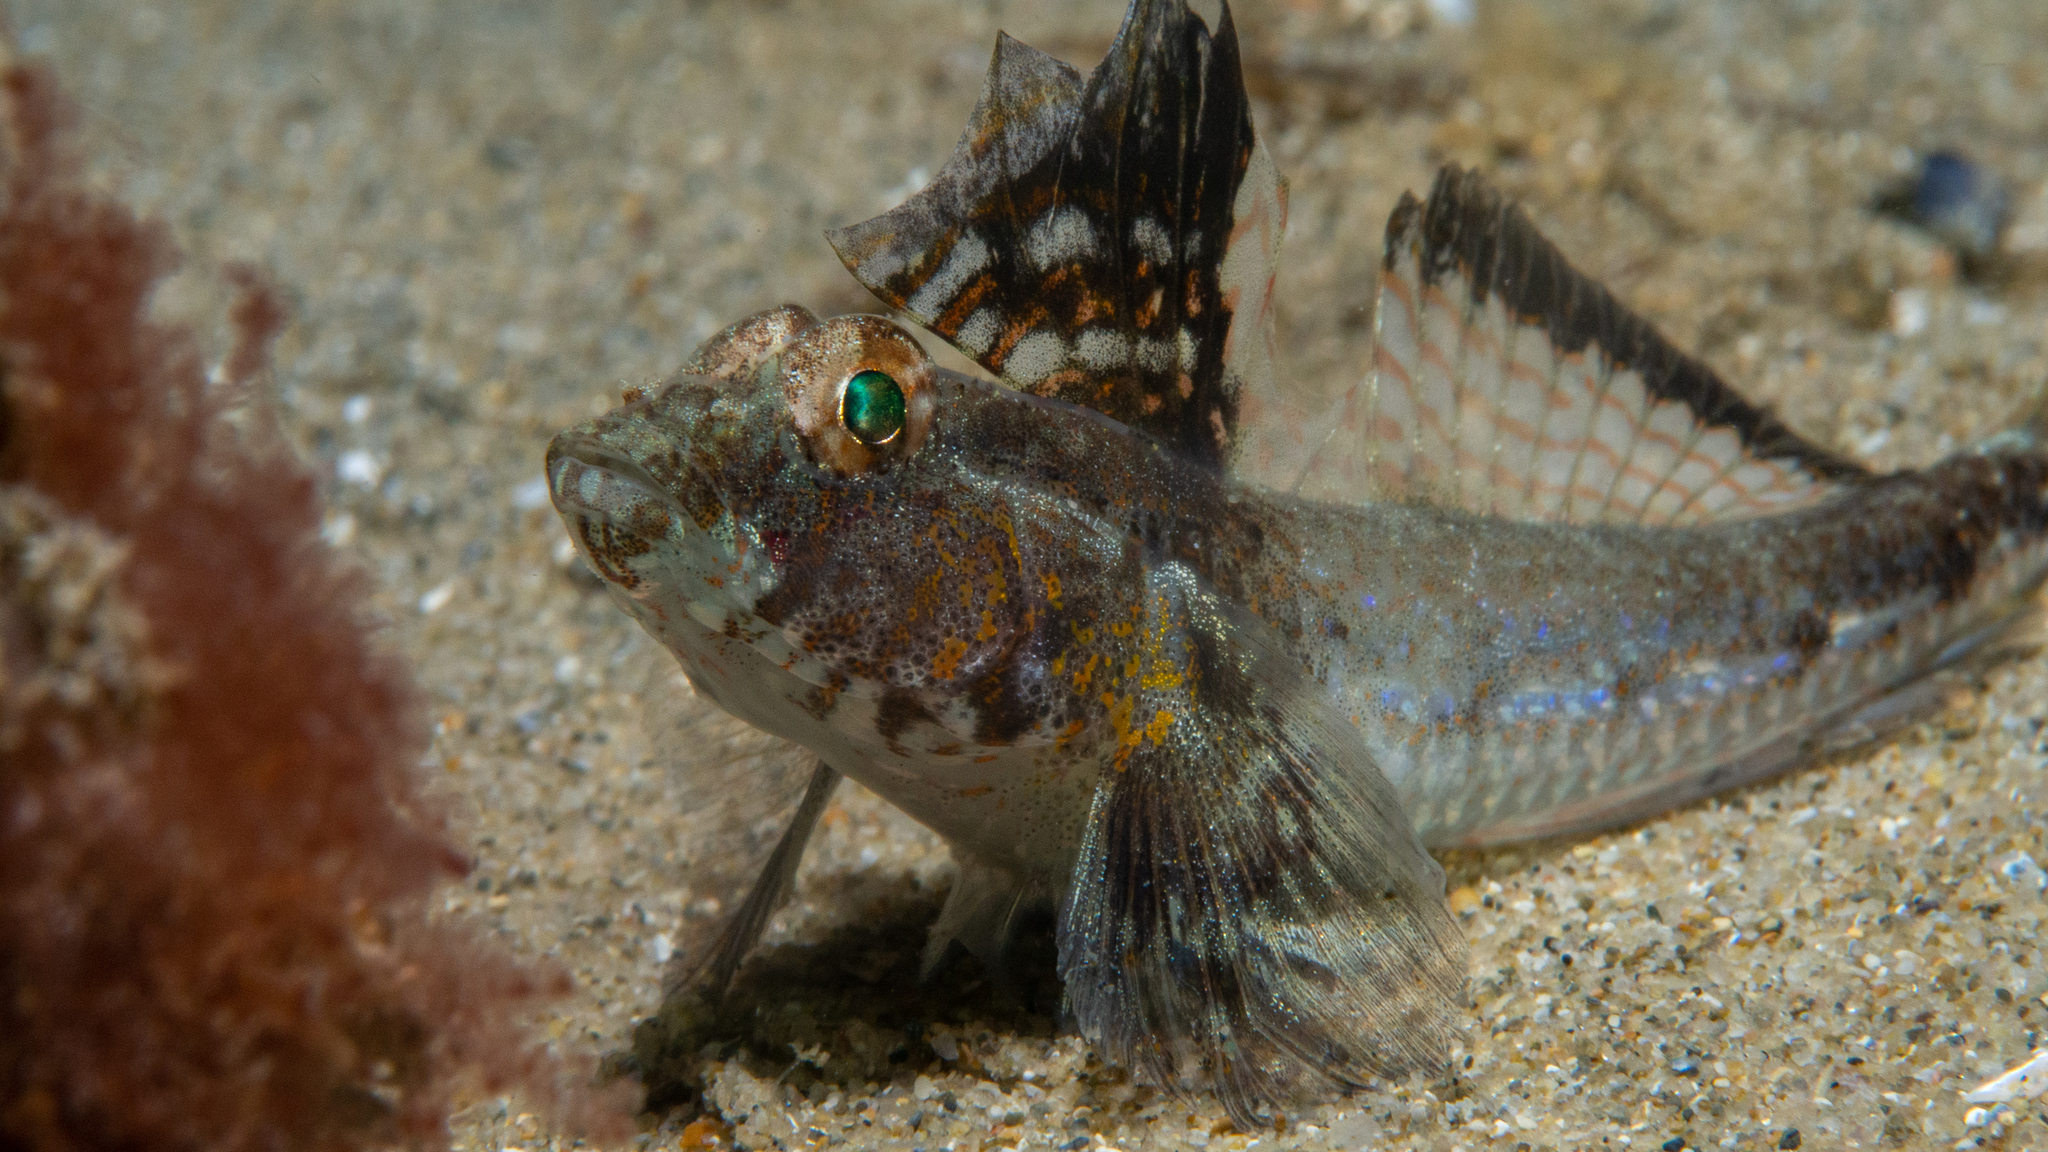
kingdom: Animalia
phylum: Chordata
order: Perciformes
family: Gobiidae
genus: Nesogobius
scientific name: Nesogobius pulchellus
